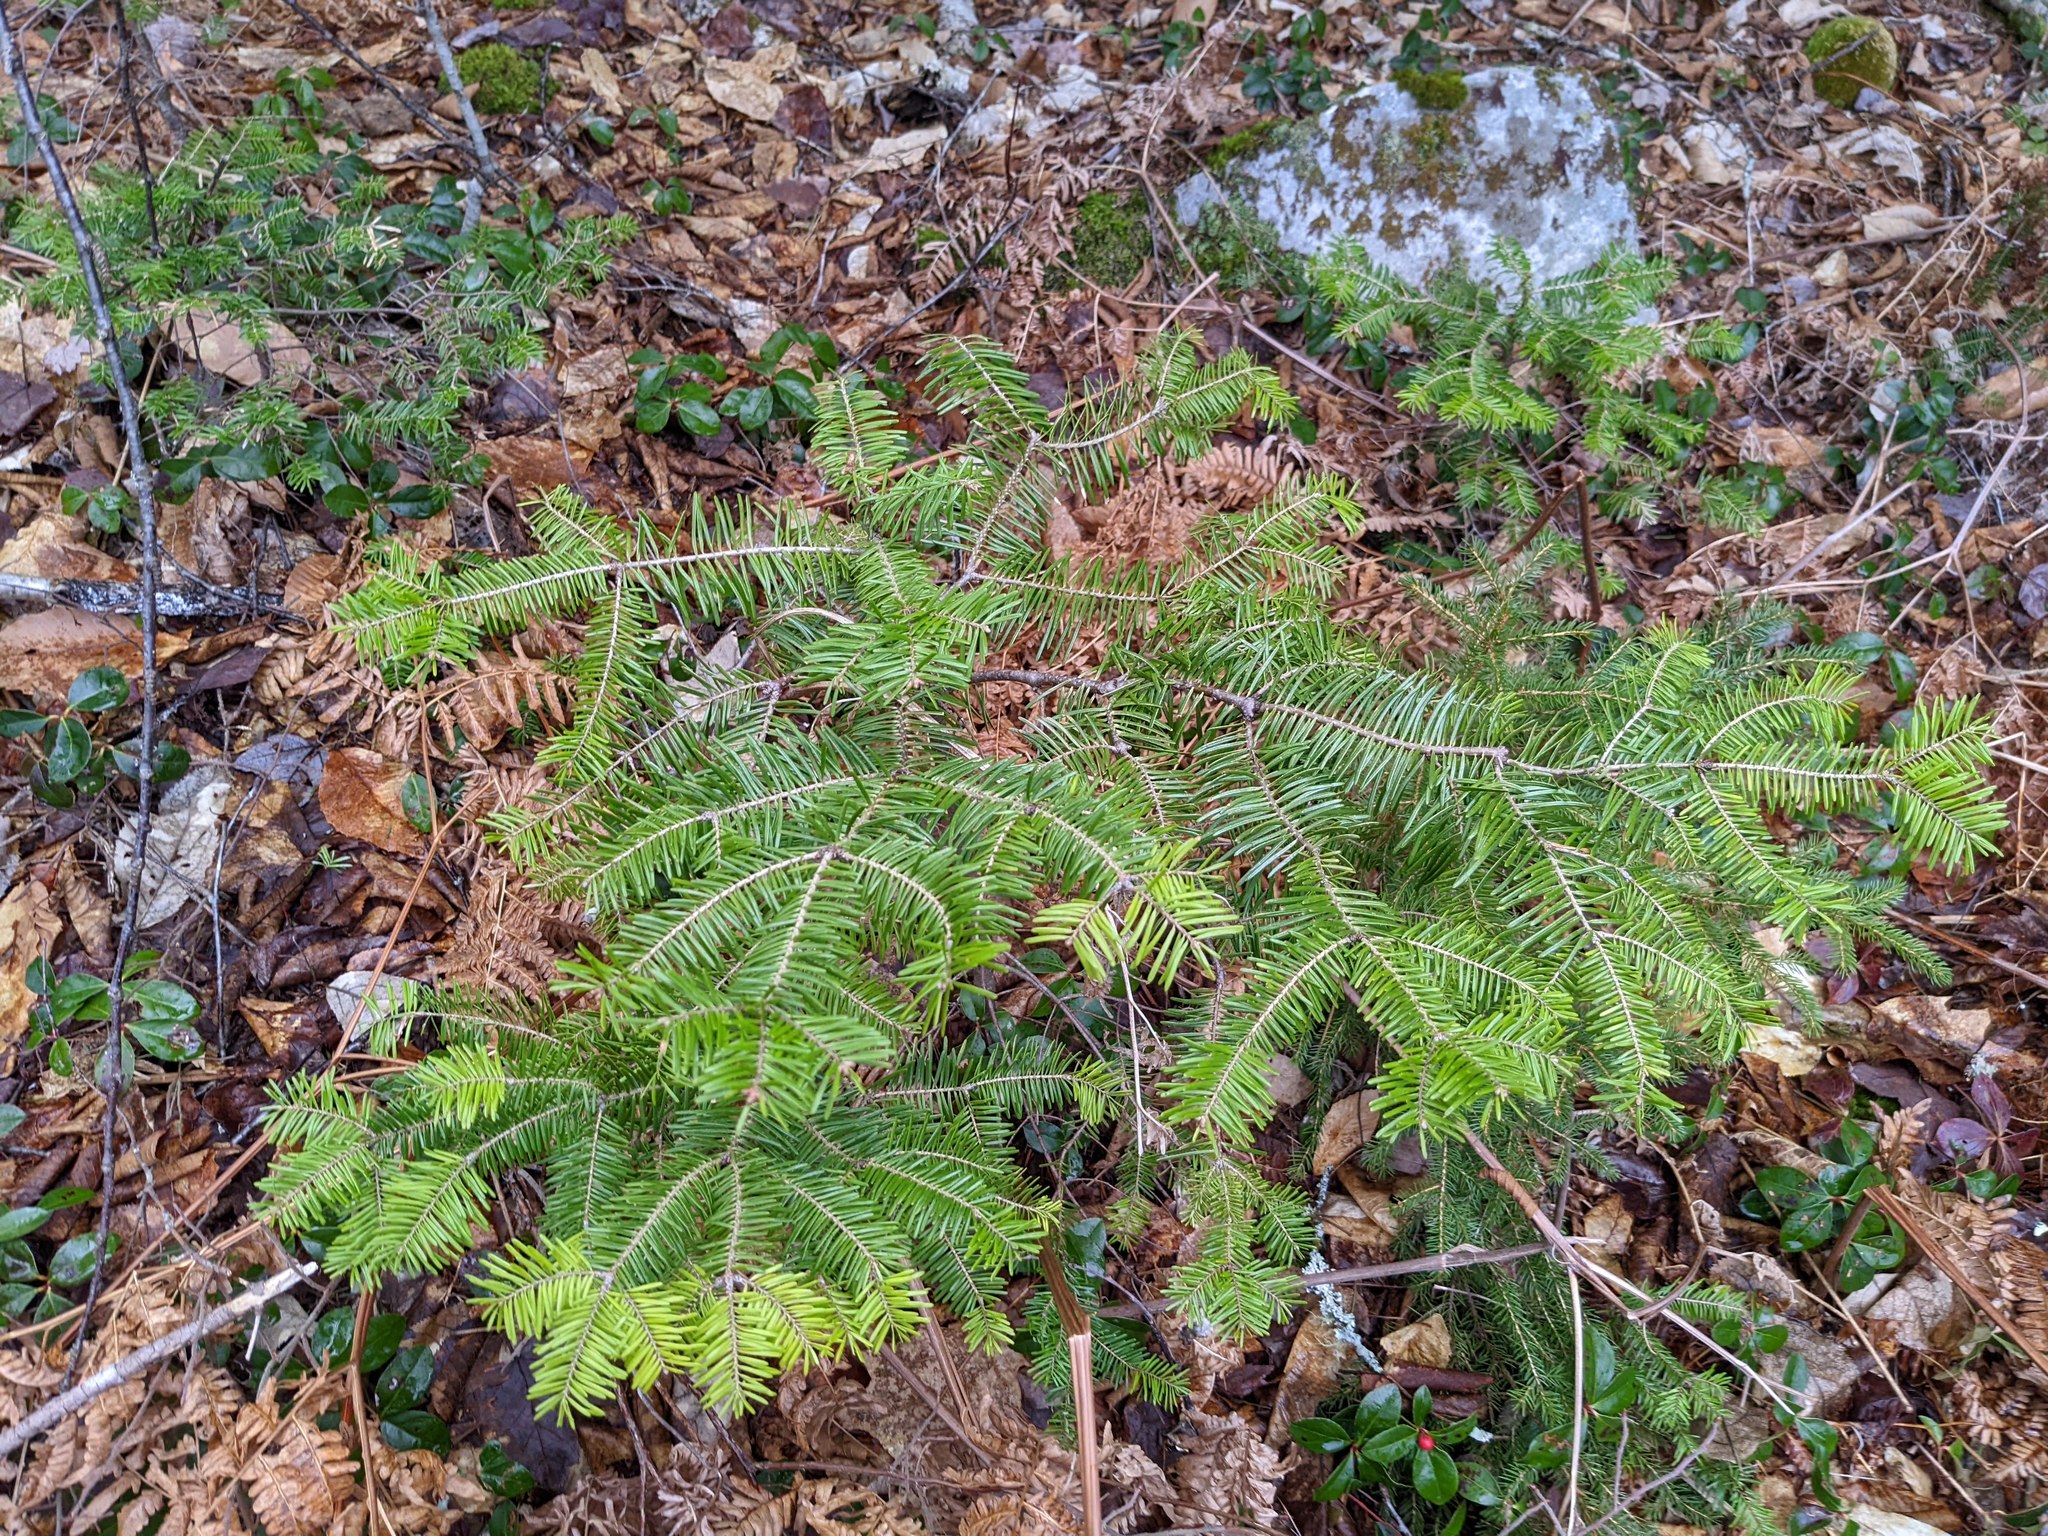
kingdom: Plantae
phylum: Tracheophyta
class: Pinopsida
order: Pinales
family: Pinaceae
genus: Abies
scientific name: Abies balsamea
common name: Balsam fir
